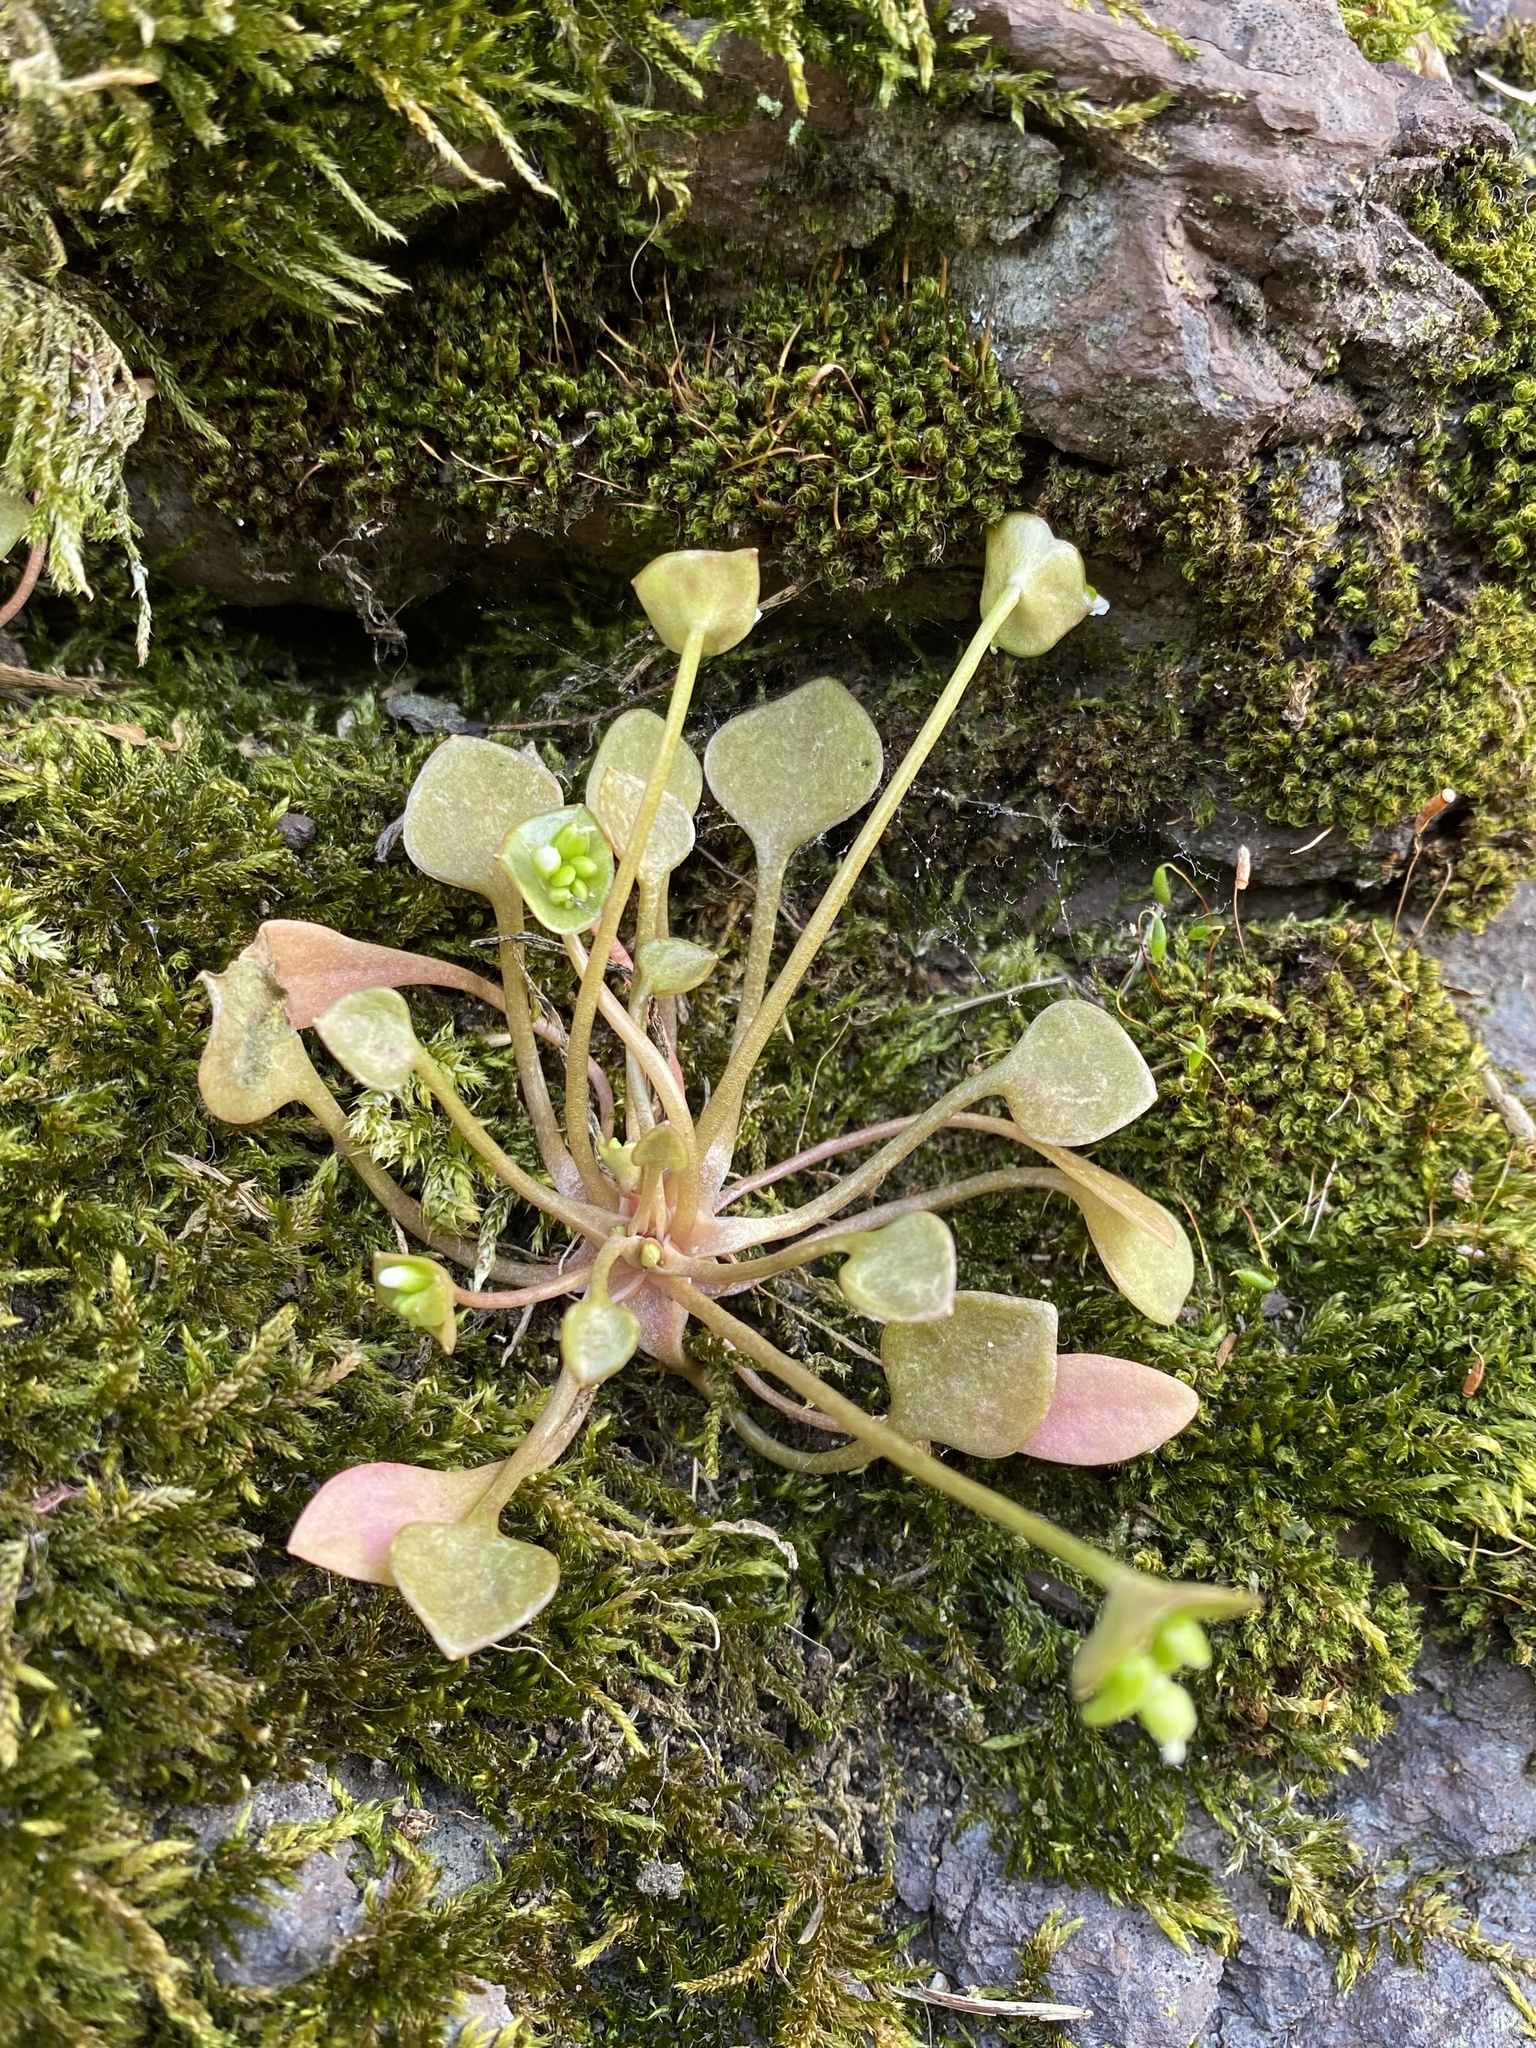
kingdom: Plantae
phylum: Tracheophyta
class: Magnoliopsida
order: Caryophyllales
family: Montiaceae
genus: Claytonia
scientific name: Claytonia perfoliata
